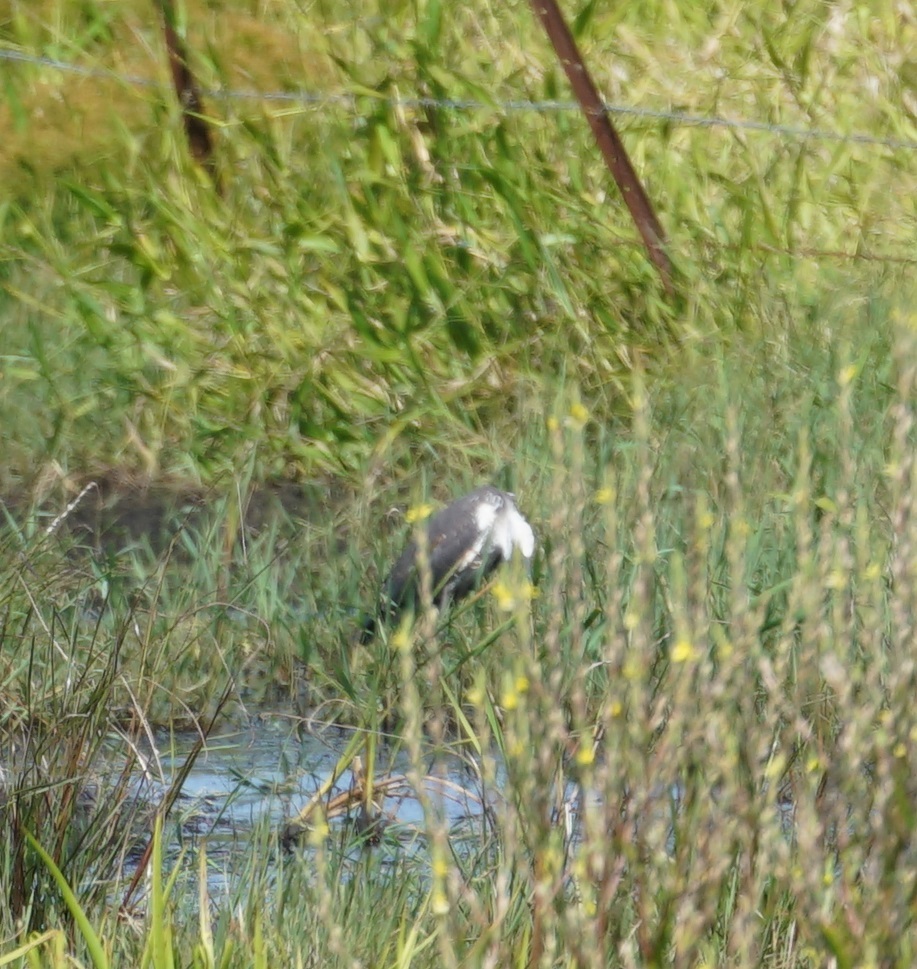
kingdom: Animalia
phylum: Chordata
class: Aves
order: Pelecaniformes
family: Ardeidae
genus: Ardea
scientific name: Ardea pacifica
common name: White-necked heron
